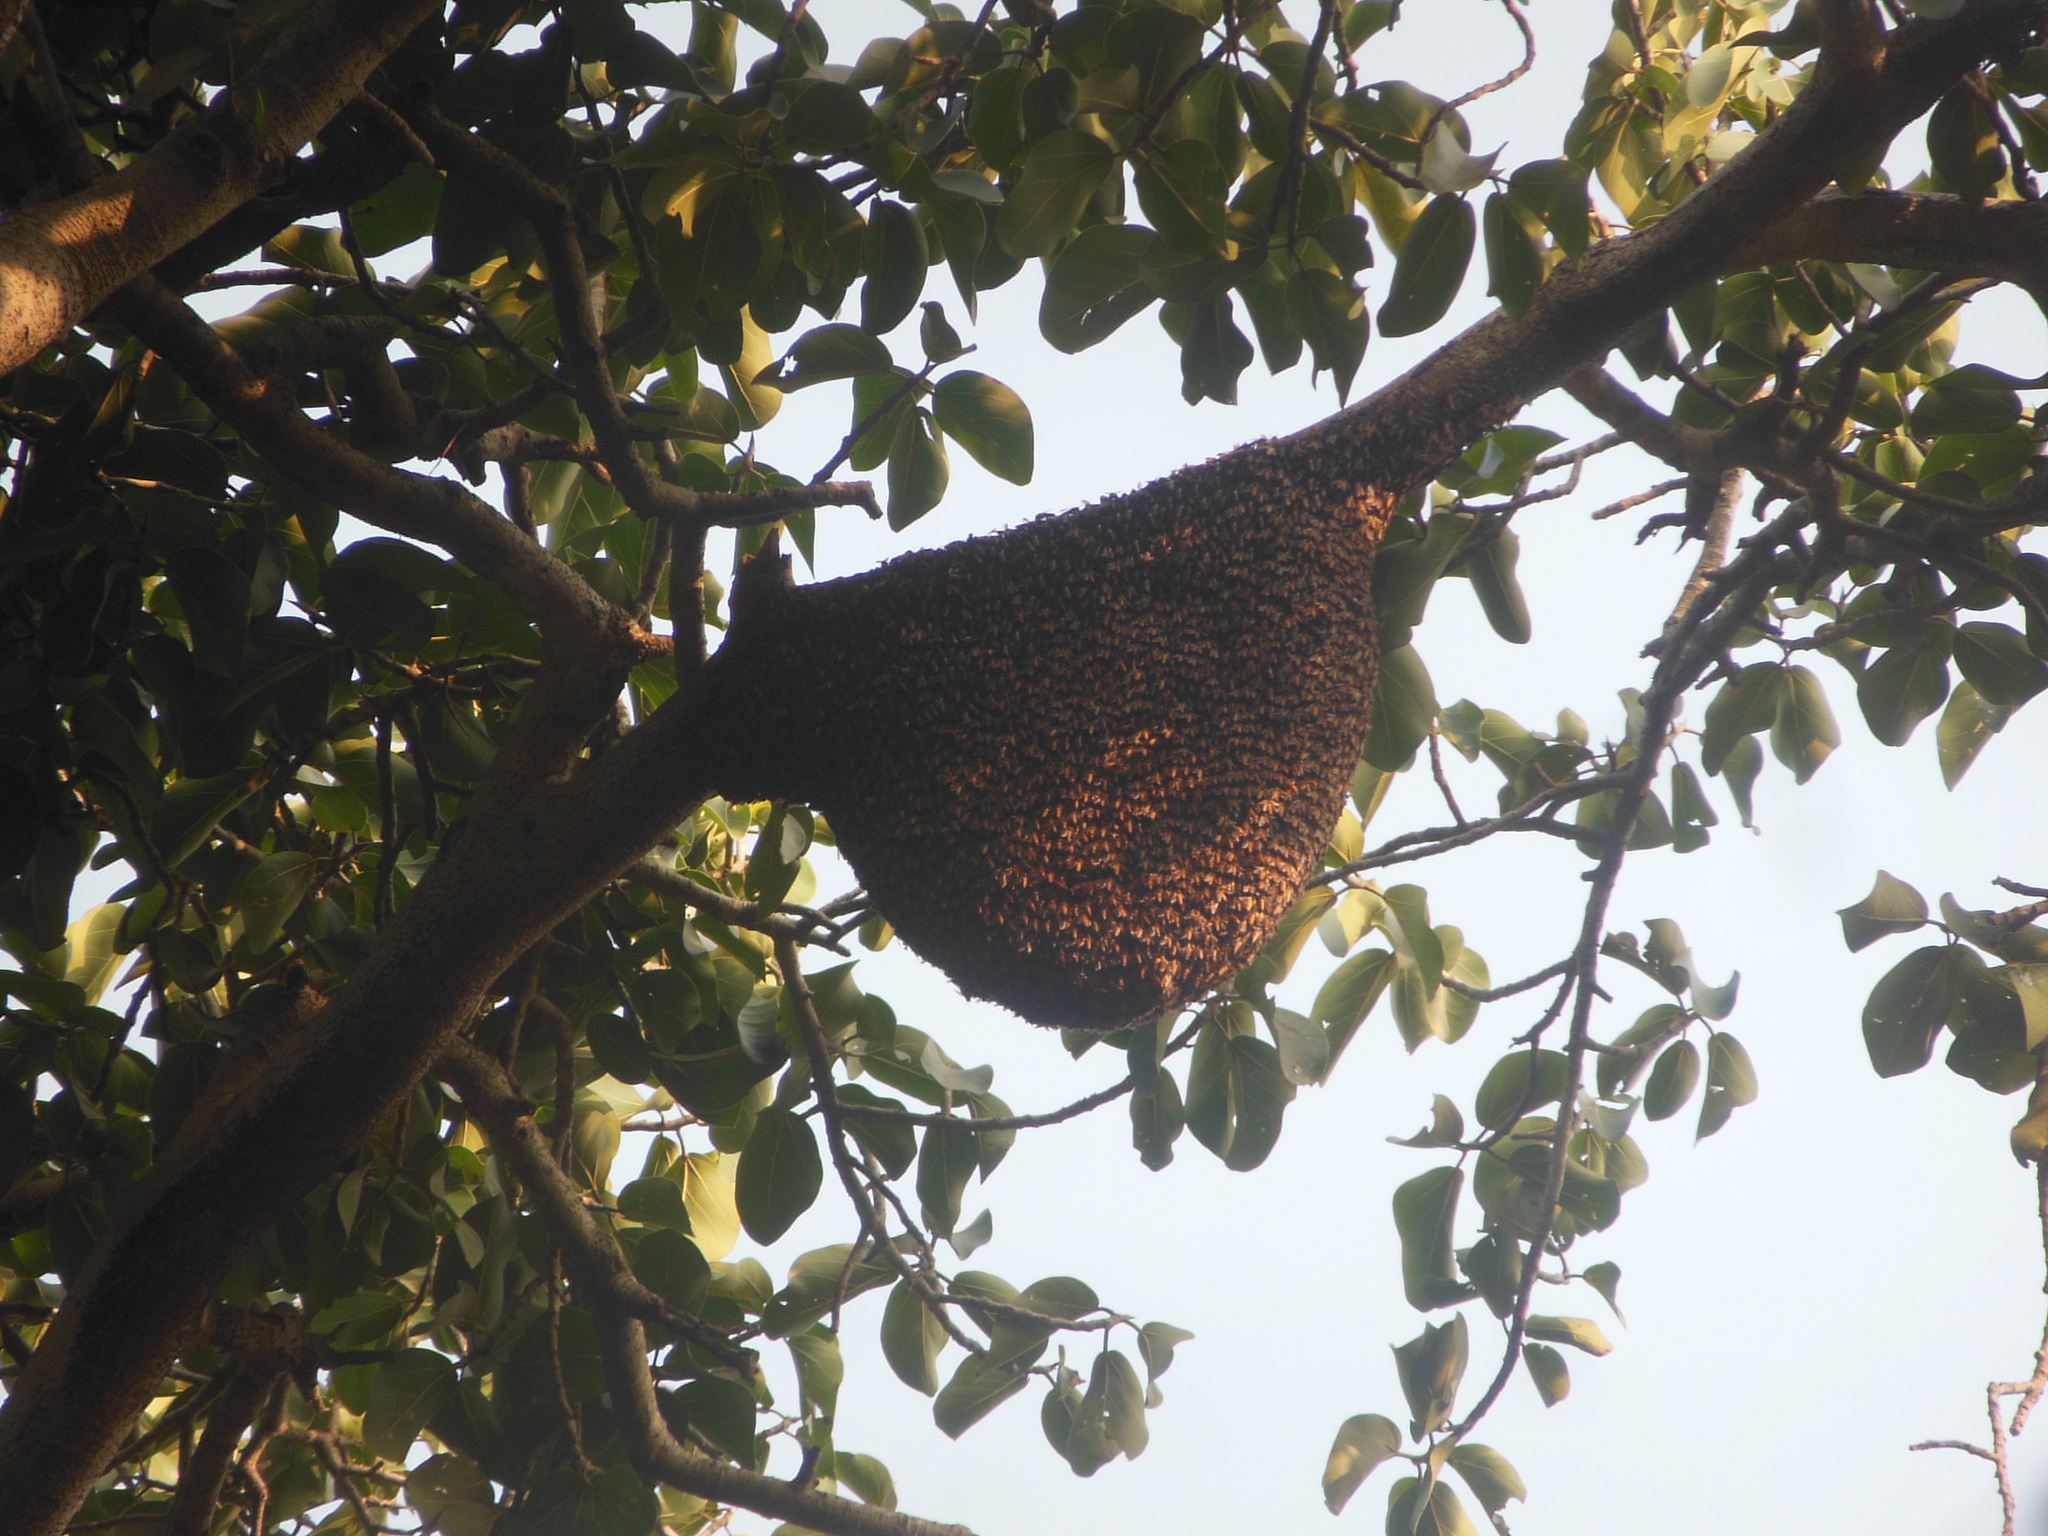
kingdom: Animalia
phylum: Arthropoda
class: Insecta
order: Hymenoptera
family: Apidae
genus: Apis
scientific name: Apis dorsata
